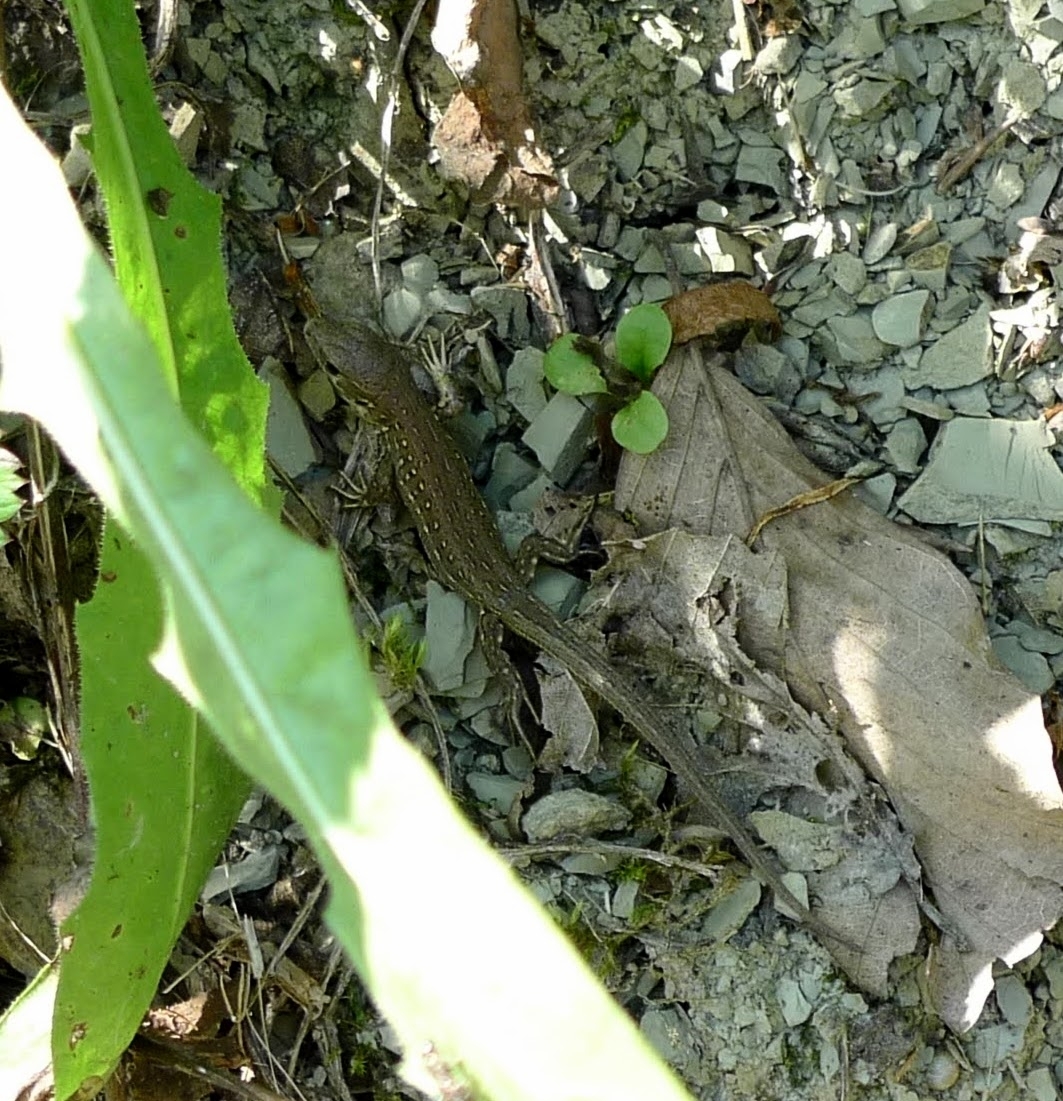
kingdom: Animalia
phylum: Chordata
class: Squamata
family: Lacertidae
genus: Lacerta
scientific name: Lacerta agilis
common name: Sand lizard
